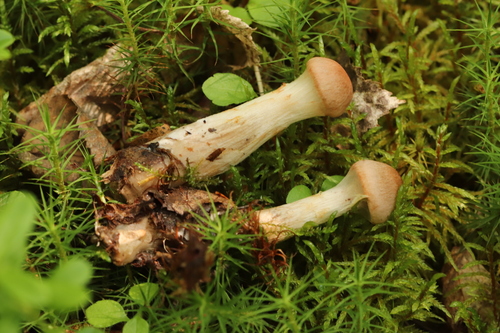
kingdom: Fungi
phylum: Basidiomycota
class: Agaricomycetes
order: Agaricales
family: Cortinariaceae
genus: Cortinarius
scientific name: Cortinarius
